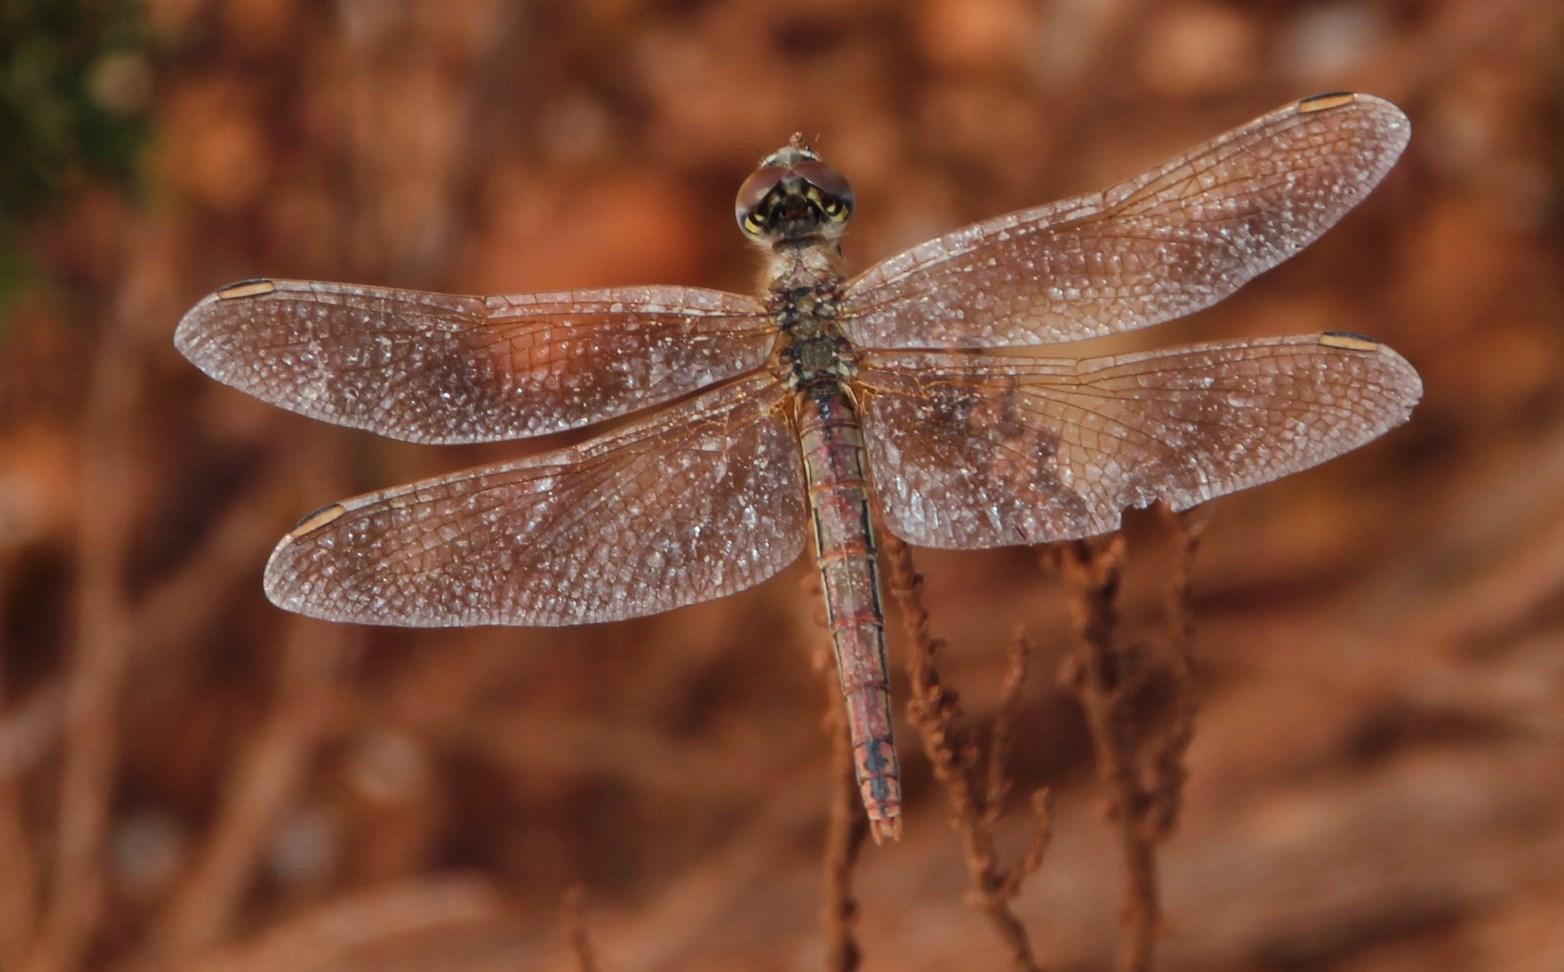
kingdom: Animalia
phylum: Arthropoda
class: Insecta
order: Odonata
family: Libellulidae
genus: Sympetrum
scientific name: Sympetrum fonscolombii
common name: Red-veined darter
